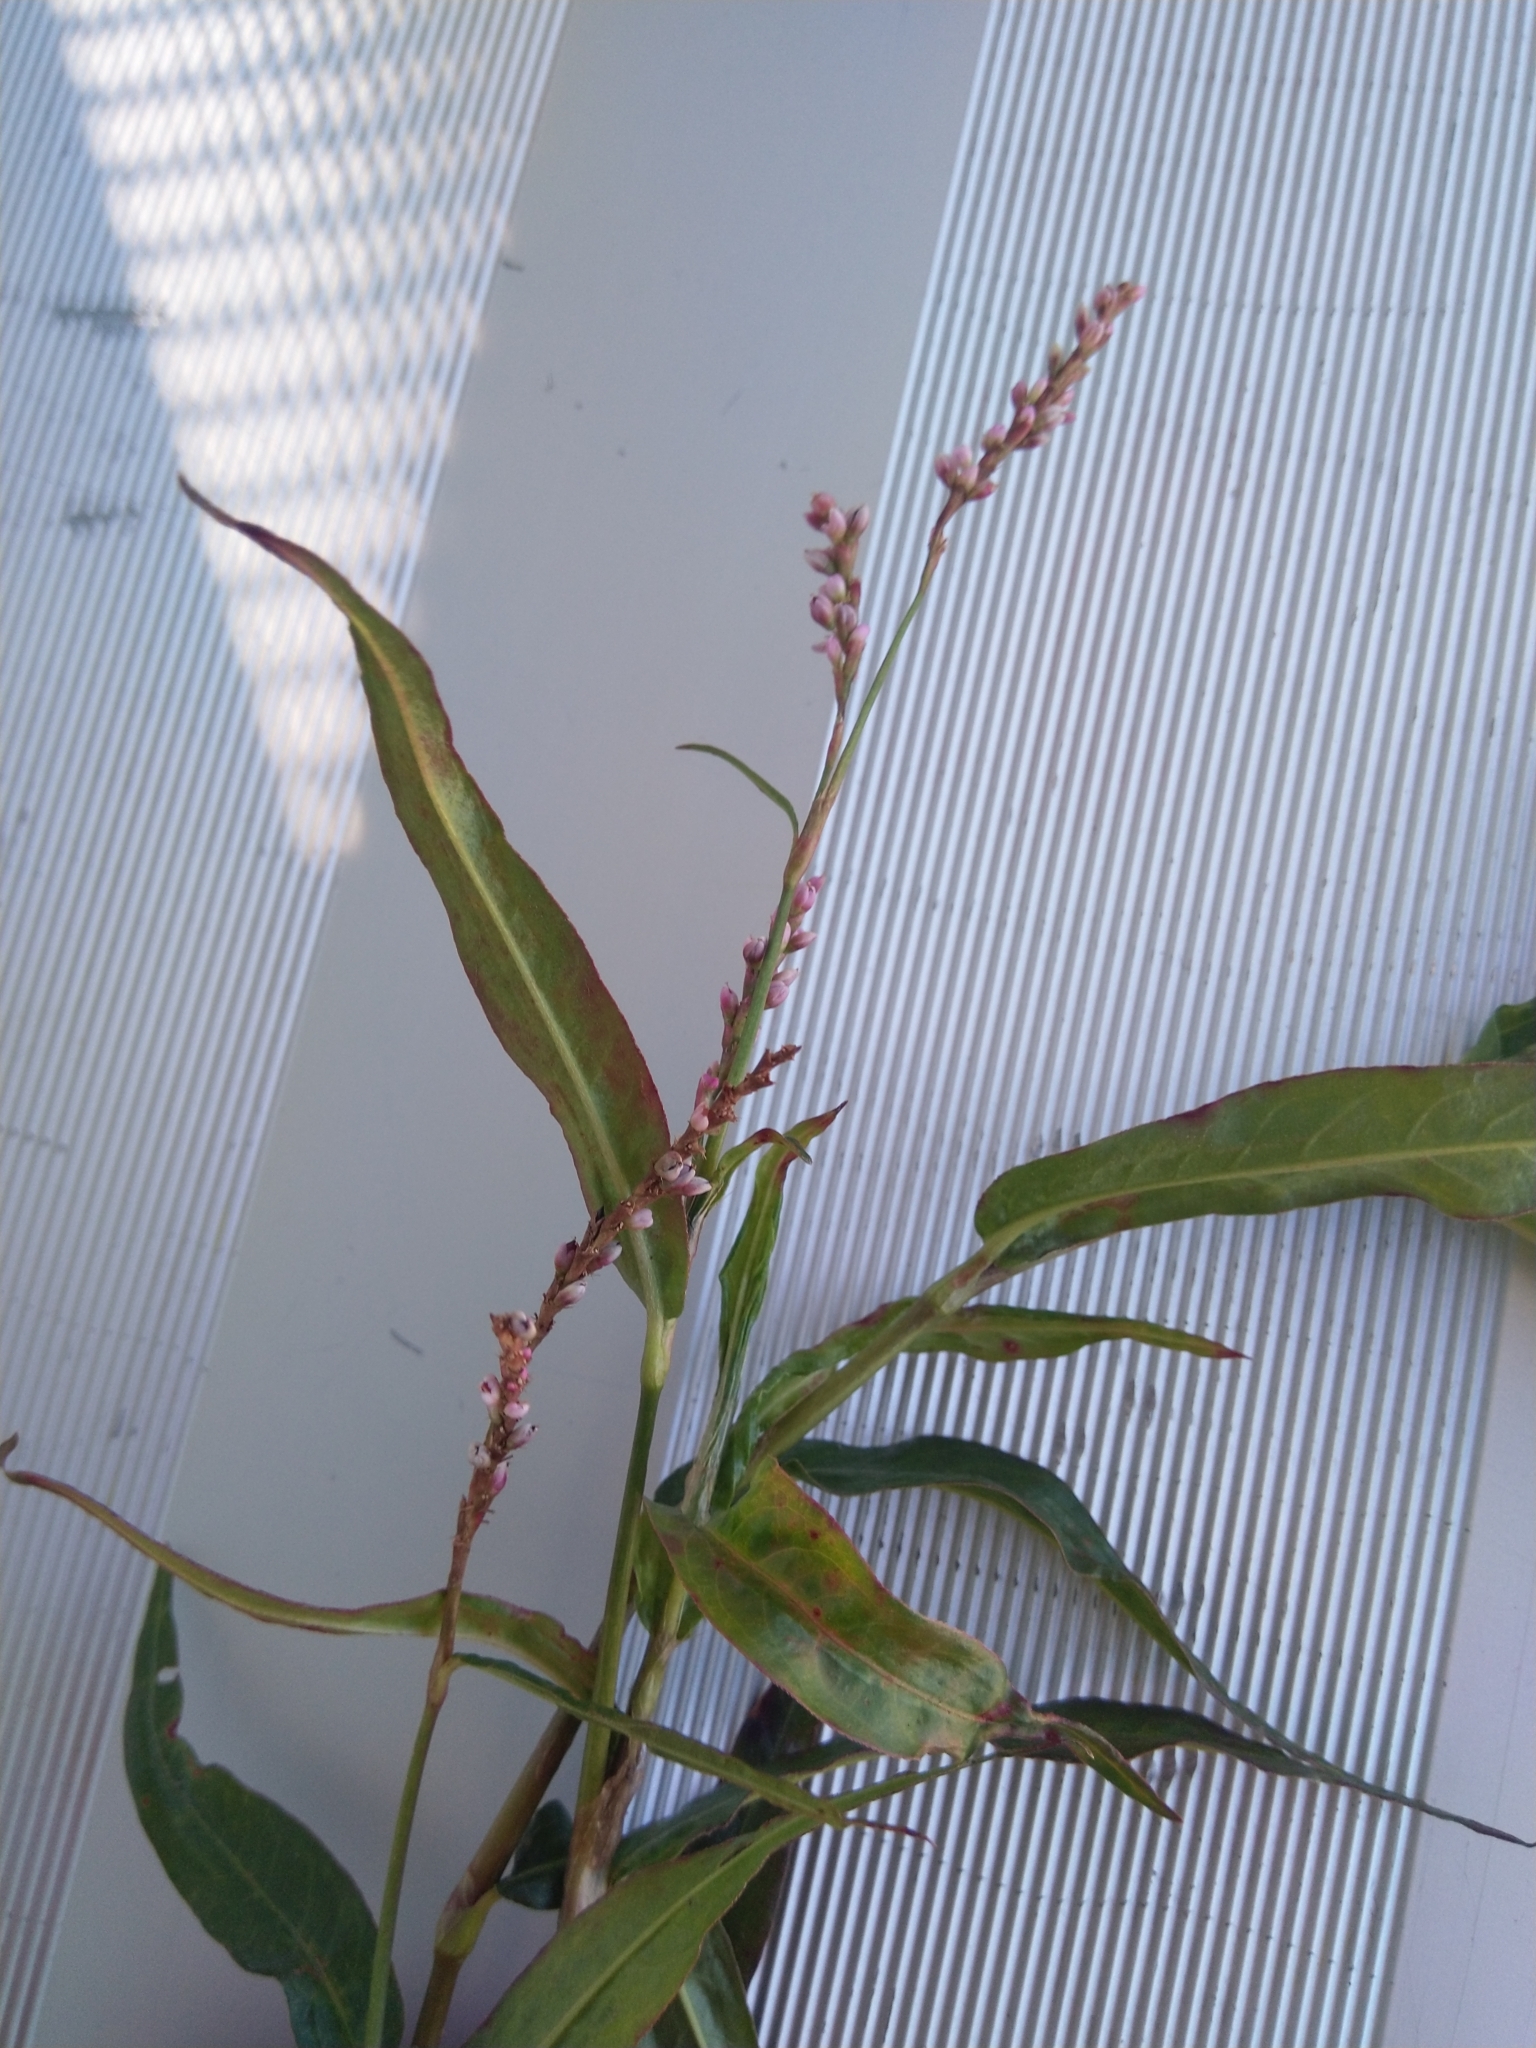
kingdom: Plantae
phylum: Tracheophyta
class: Magnoliopsida
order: Caryophyllales
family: Polygonaceae
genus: Persicaria
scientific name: Persicaria decipiens
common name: Willow-weed
